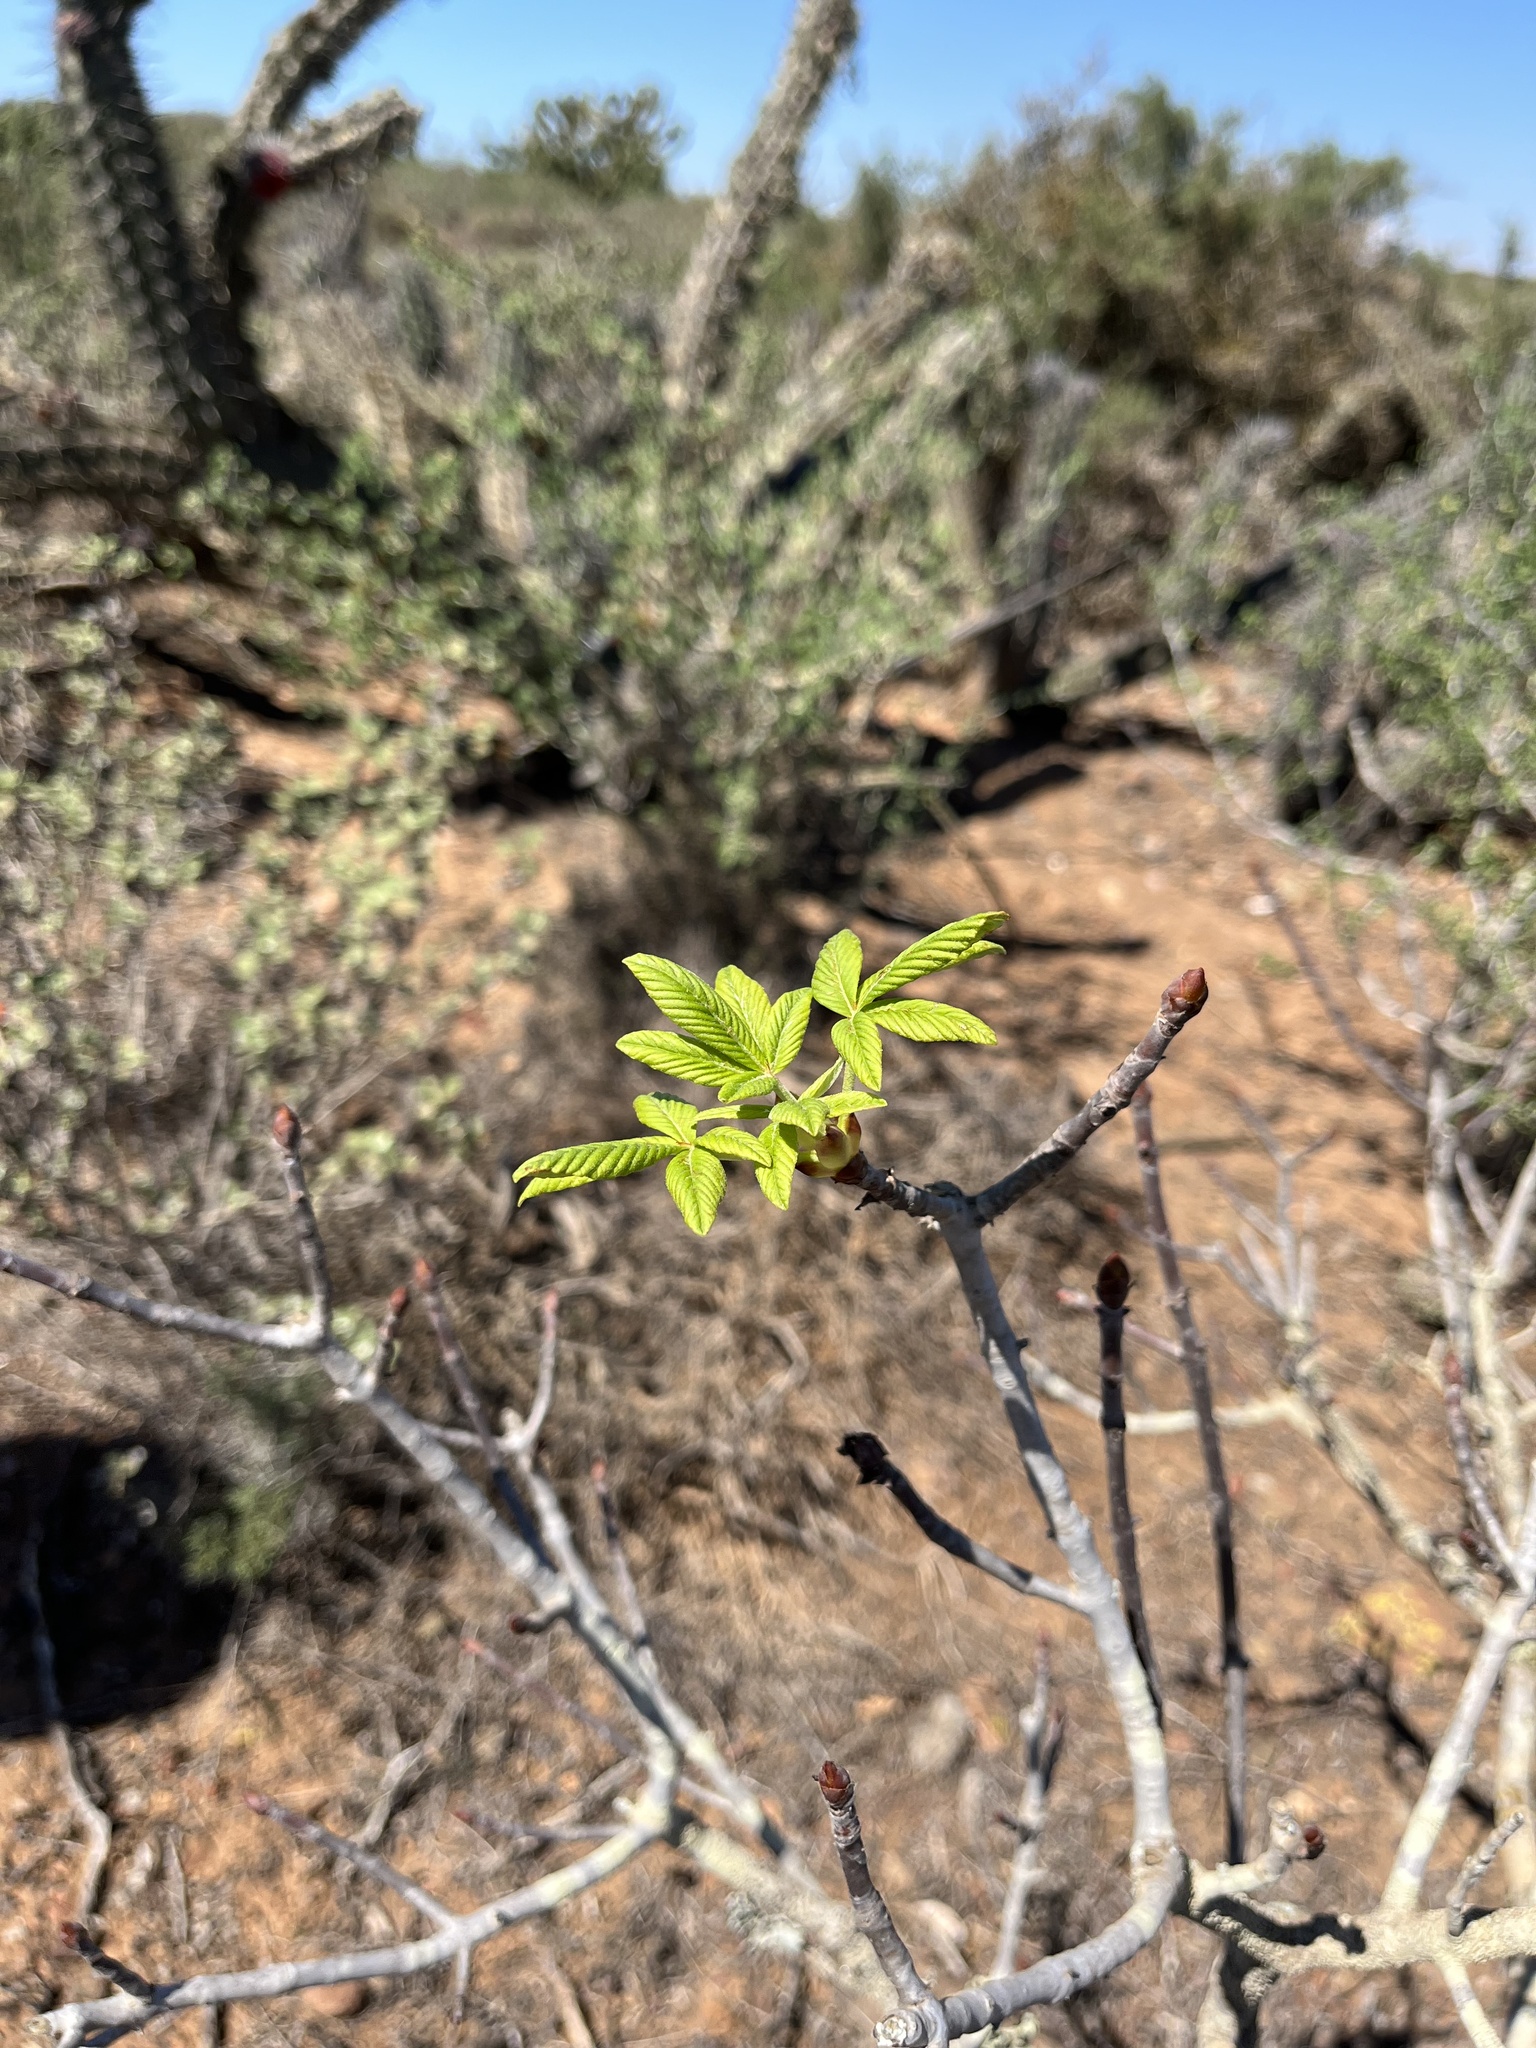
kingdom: Plantae
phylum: Tracheophyta
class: Magnoliopsida
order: Sapindales
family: Sapindaceae
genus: Aesculus
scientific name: Aesculus parryi
